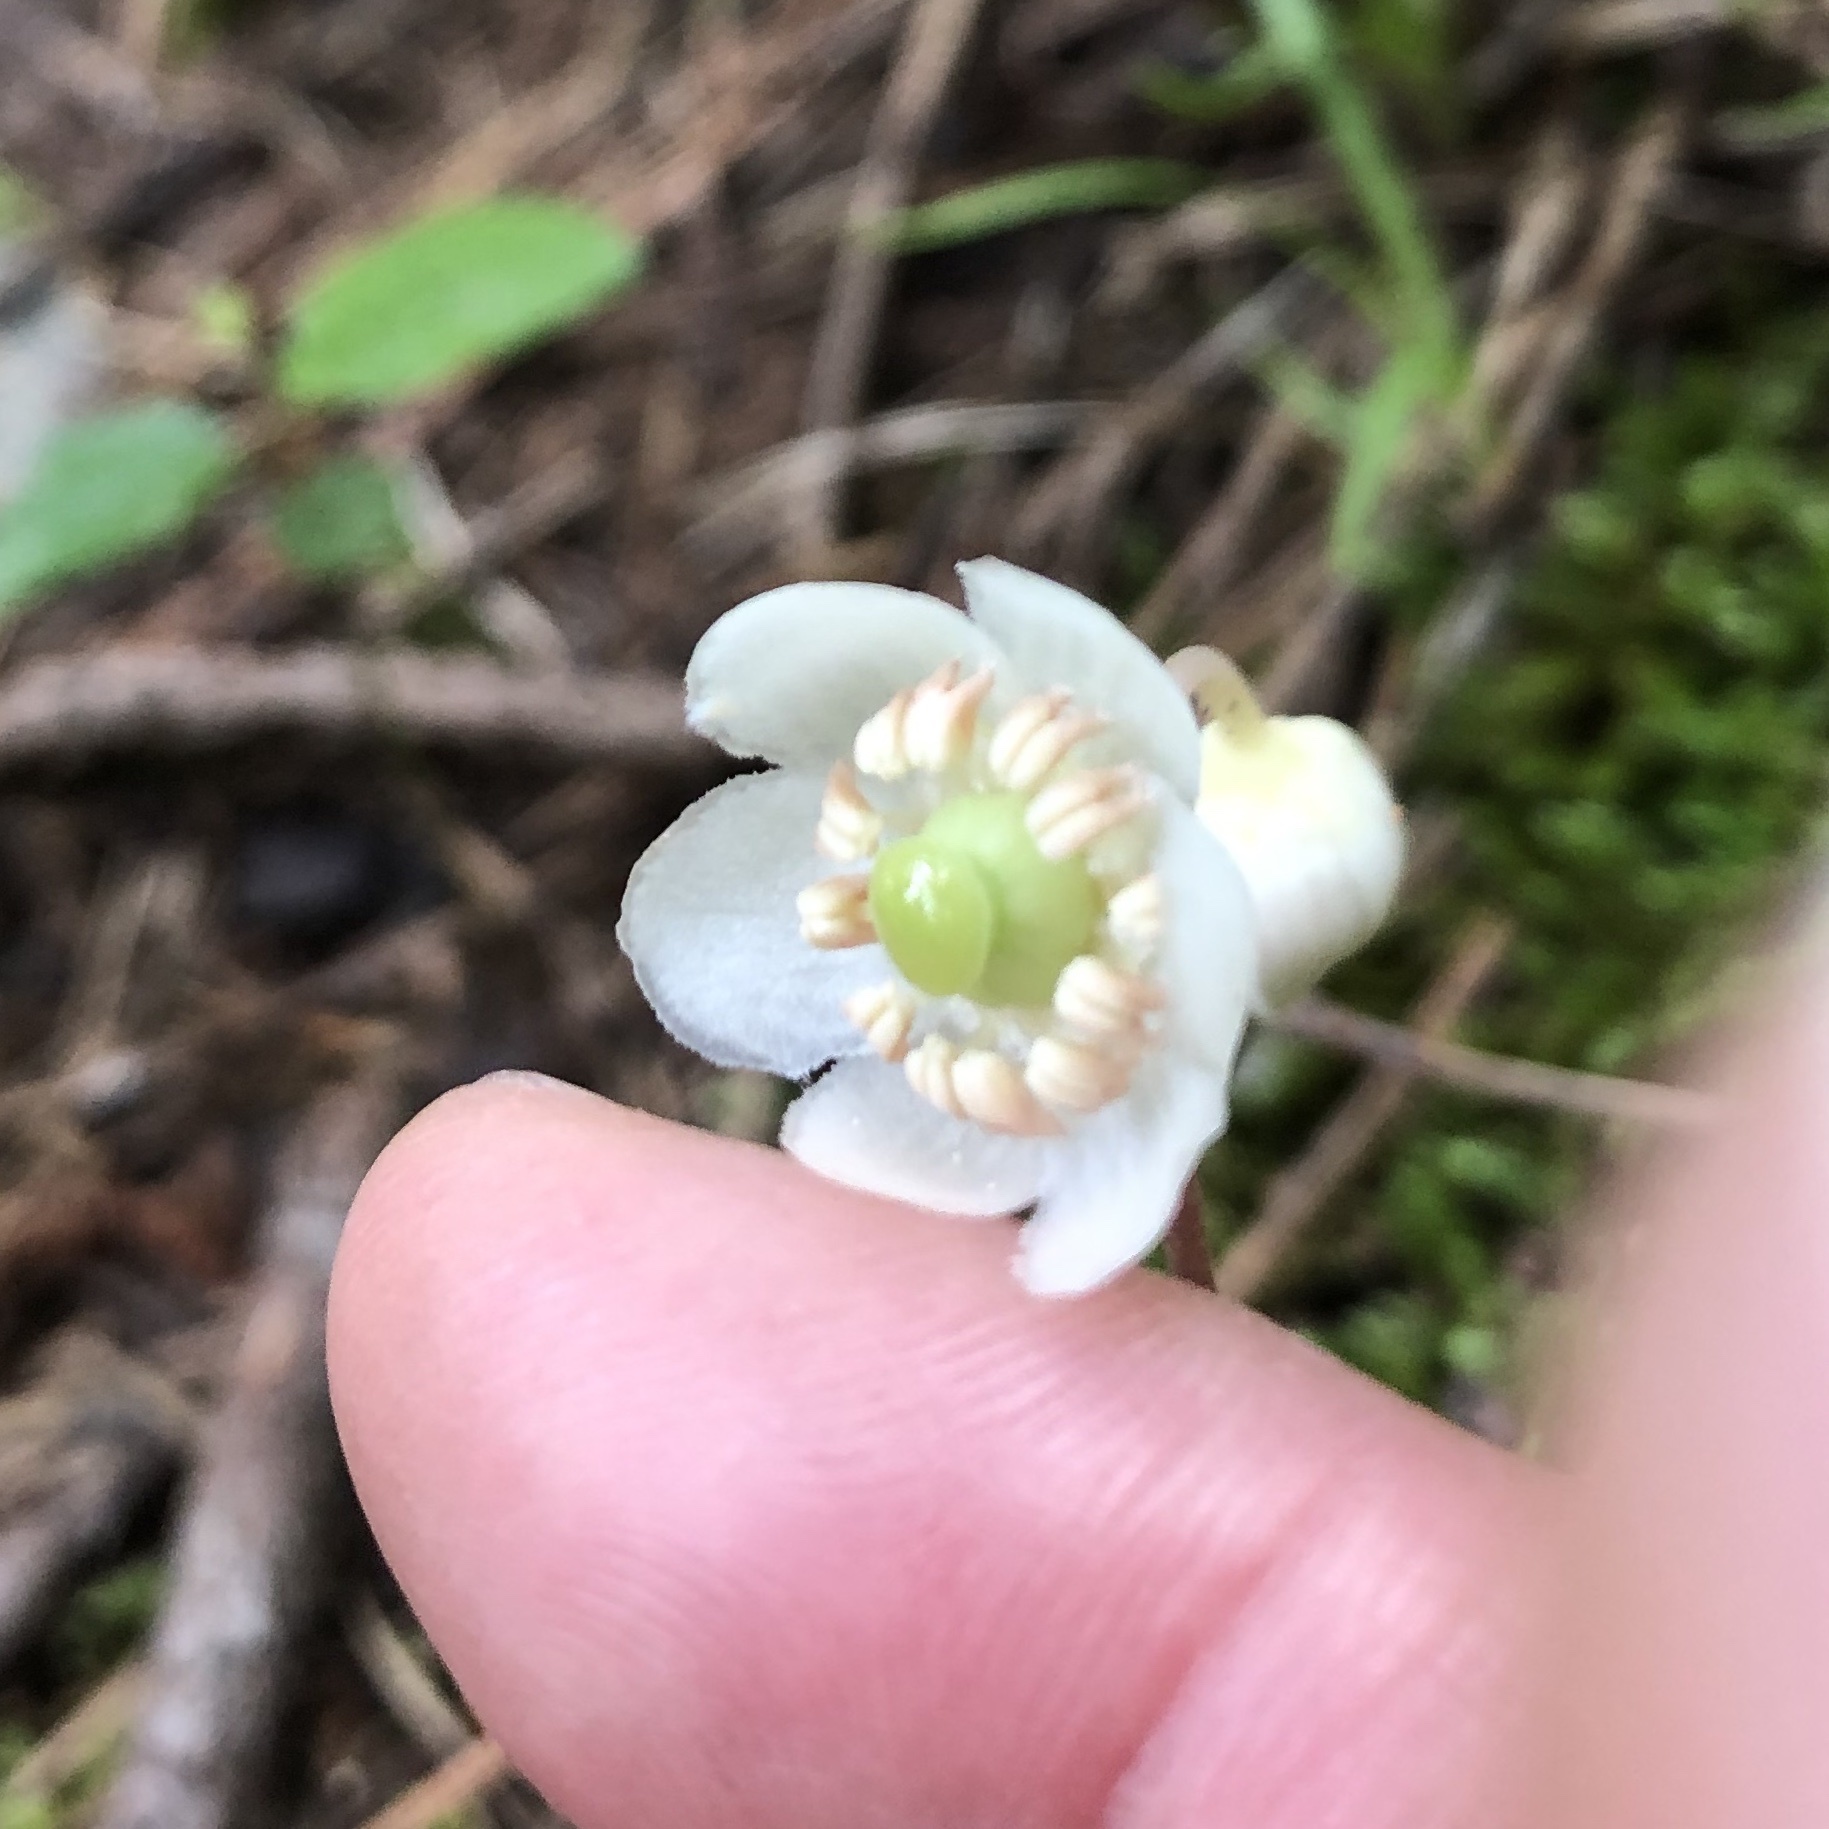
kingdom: Plantae
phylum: Tracheophyta
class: Magnoliopsida
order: Ericales
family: Ericaceae
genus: Chimaphila
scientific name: Chimaphila maculata
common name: Spotted pipsissewa
